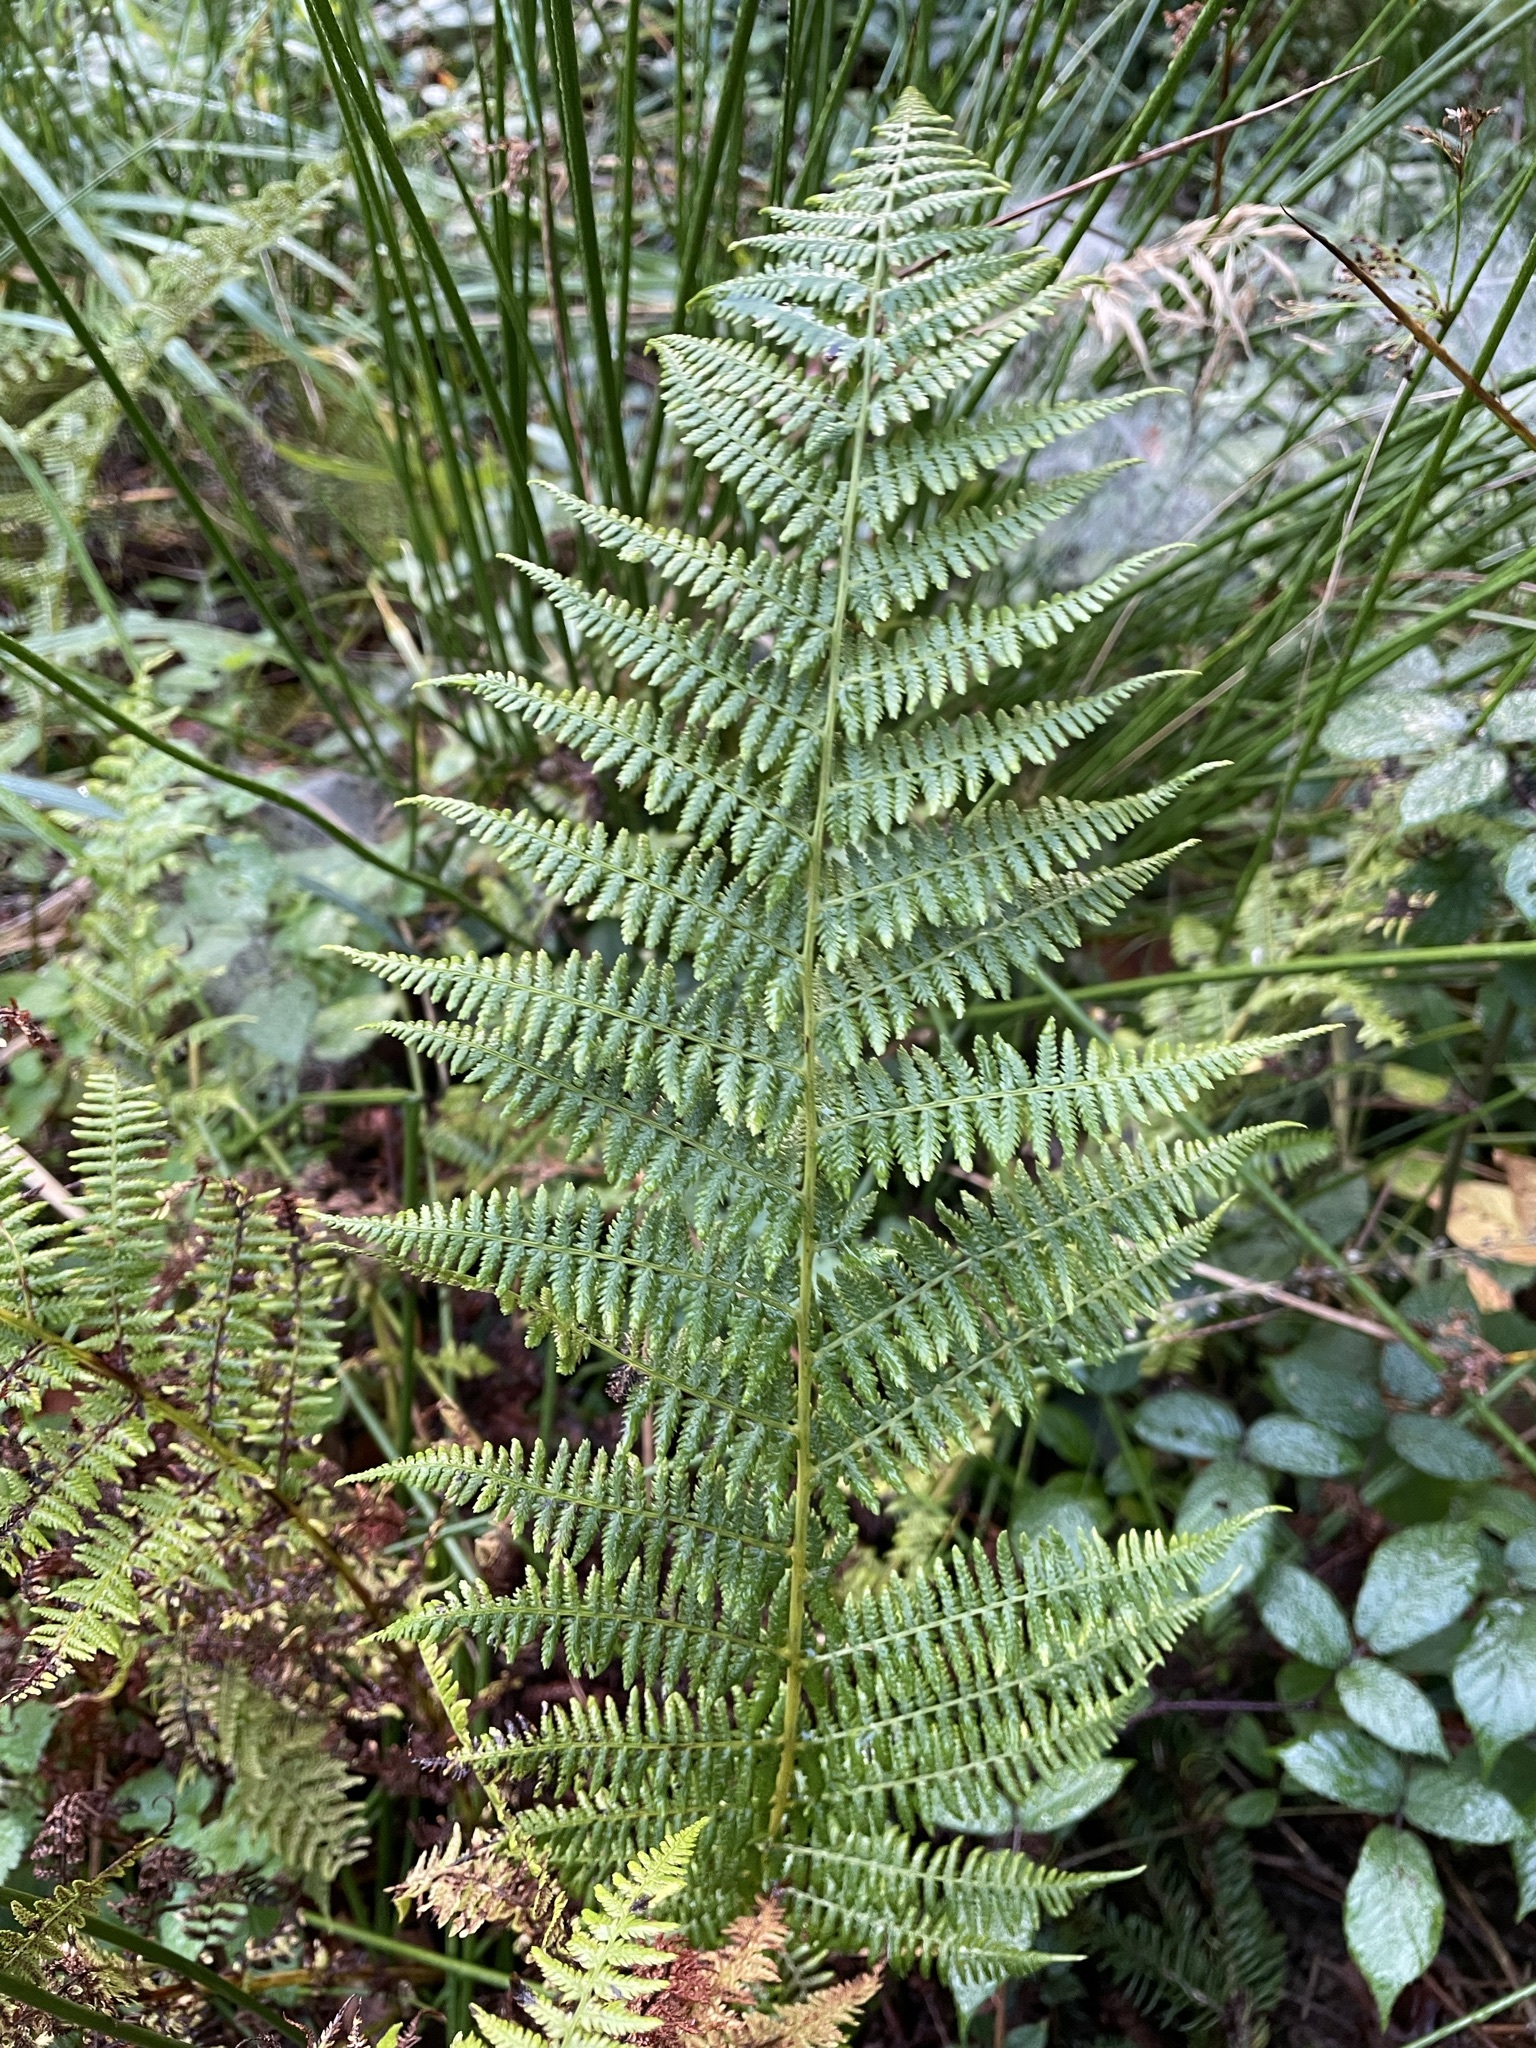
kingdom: Plantae
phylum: Tracheophyta
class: Polypodiopsida
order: Polypodiales
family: Athyriaceae
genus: Athyrium
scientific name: Athyrium filix-femina
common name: Lady fern
